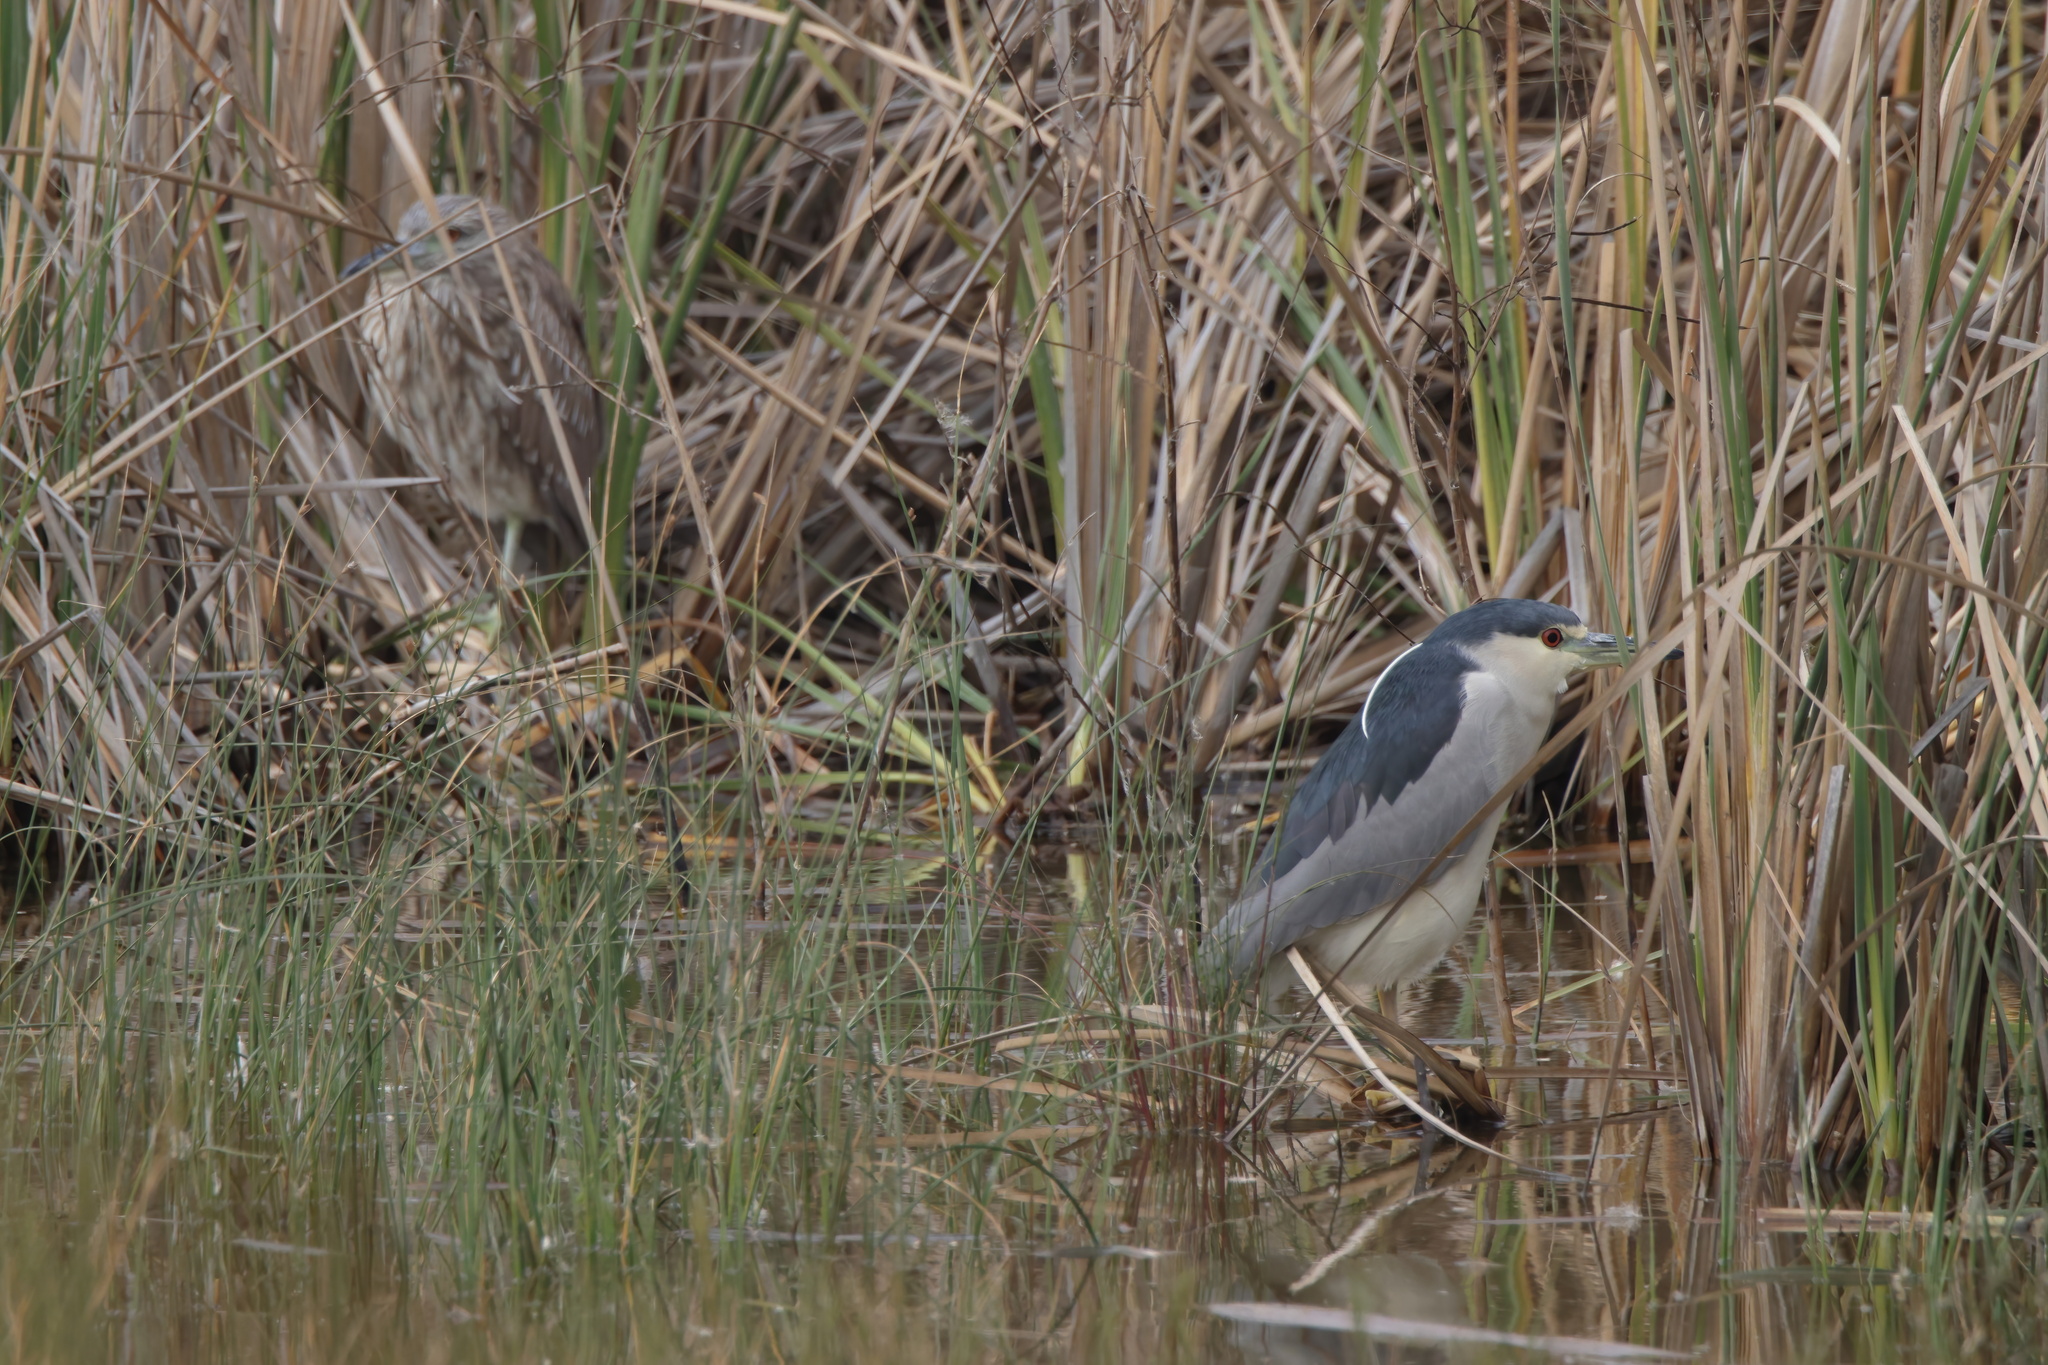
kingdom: Animalia
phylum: Chordata
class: Aves
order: Pelecaniformes
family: Ardeidae
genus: Nycticorax
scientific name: Nycticorax nycticorax
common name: Black-crowned night heron
